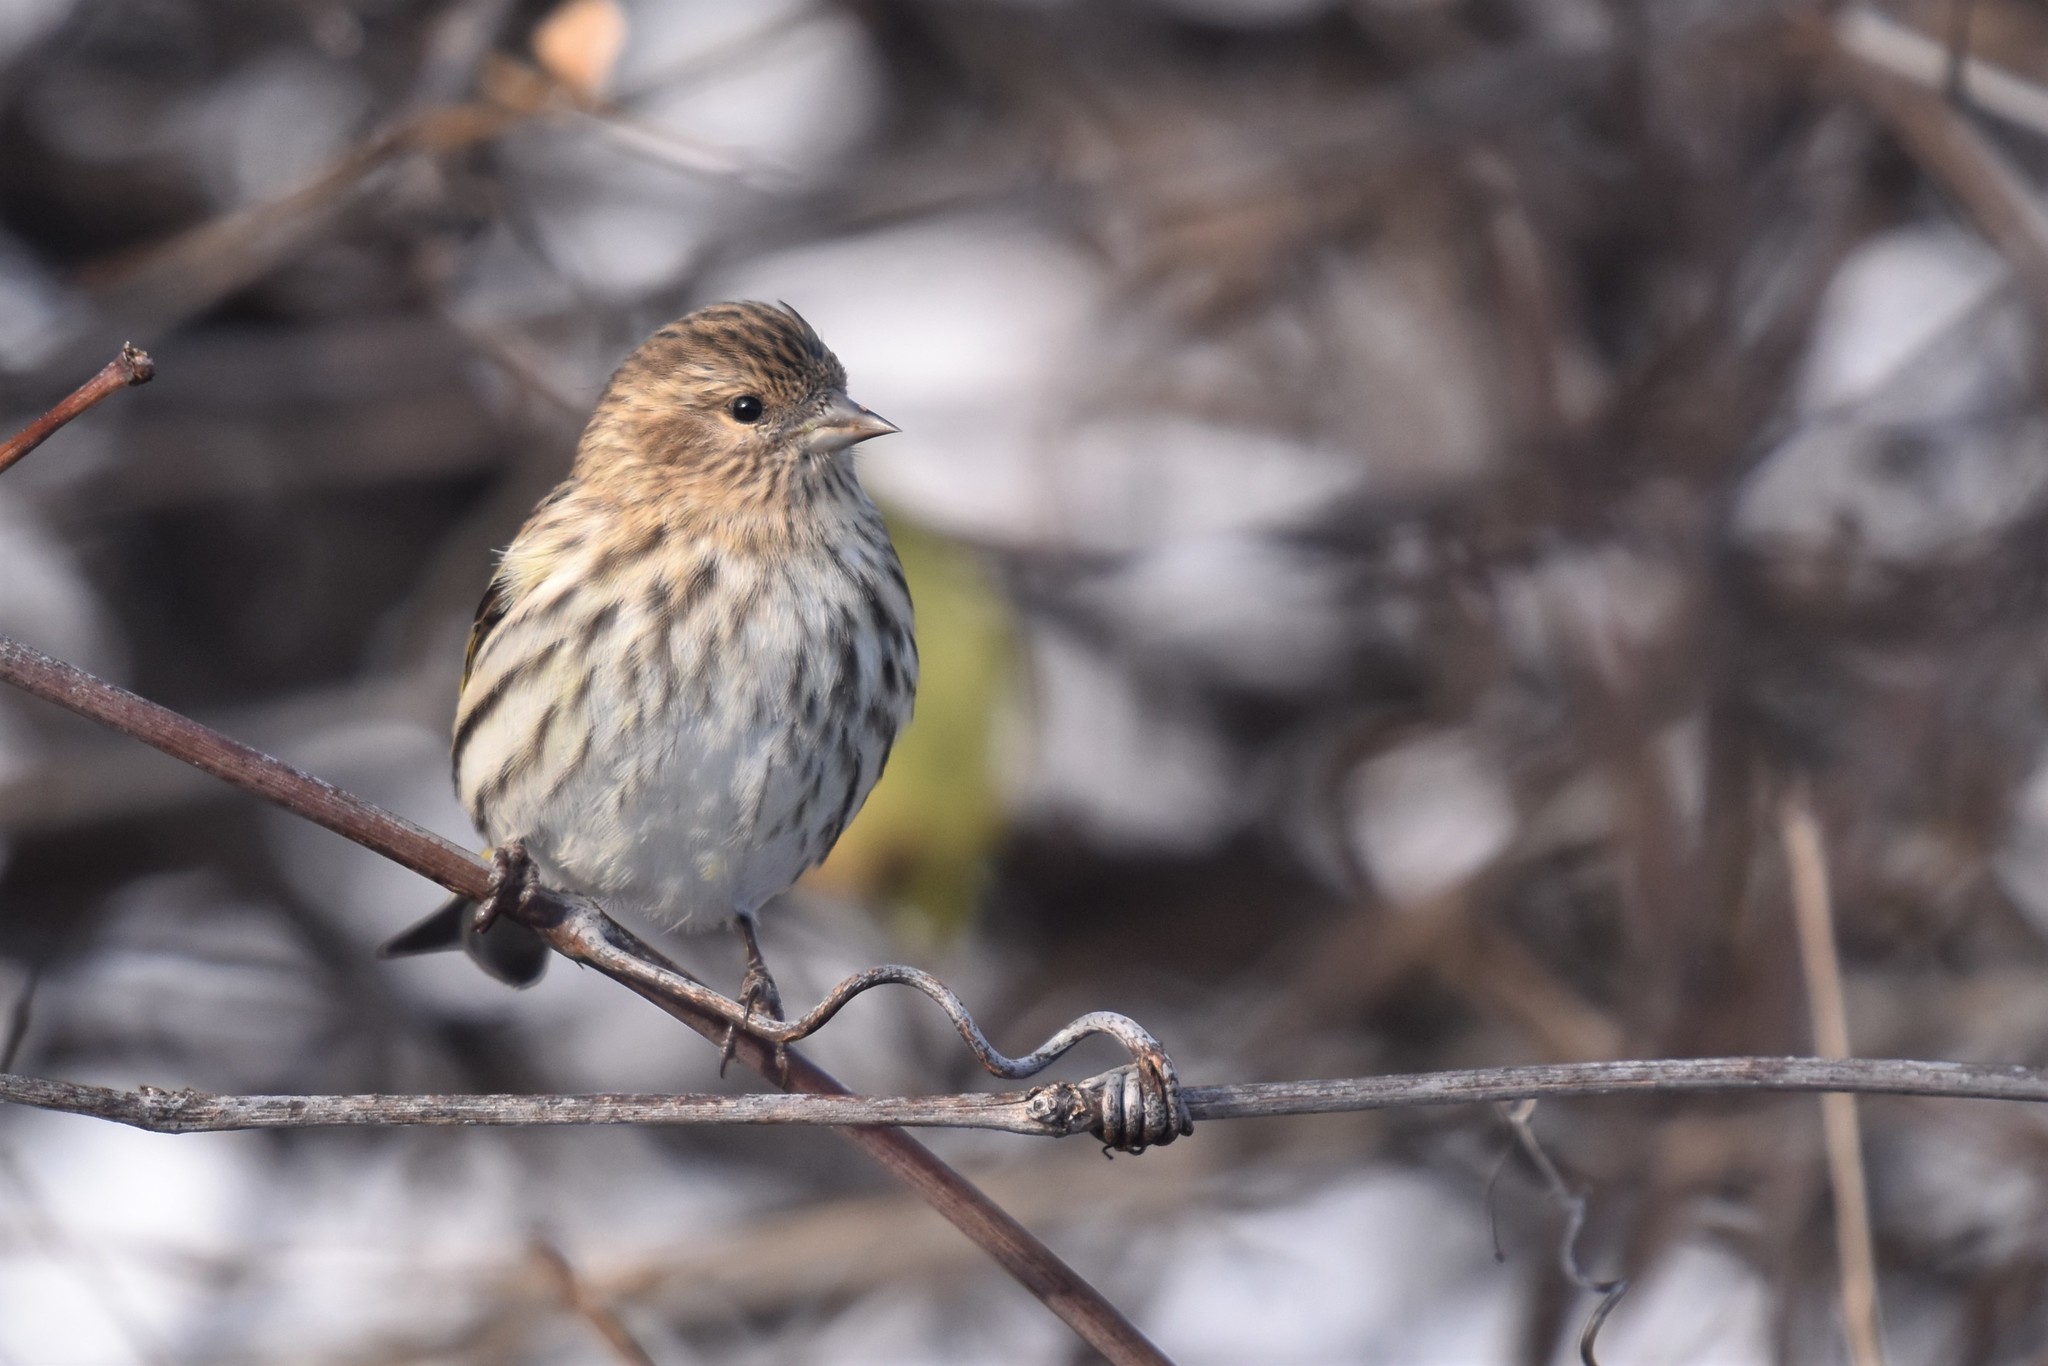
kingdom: Animalia
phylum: Chordata
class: Aves
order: Passeriformes
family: Fringillidae
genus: Spinus
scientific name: Spinus pinus
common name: Pine siskin
